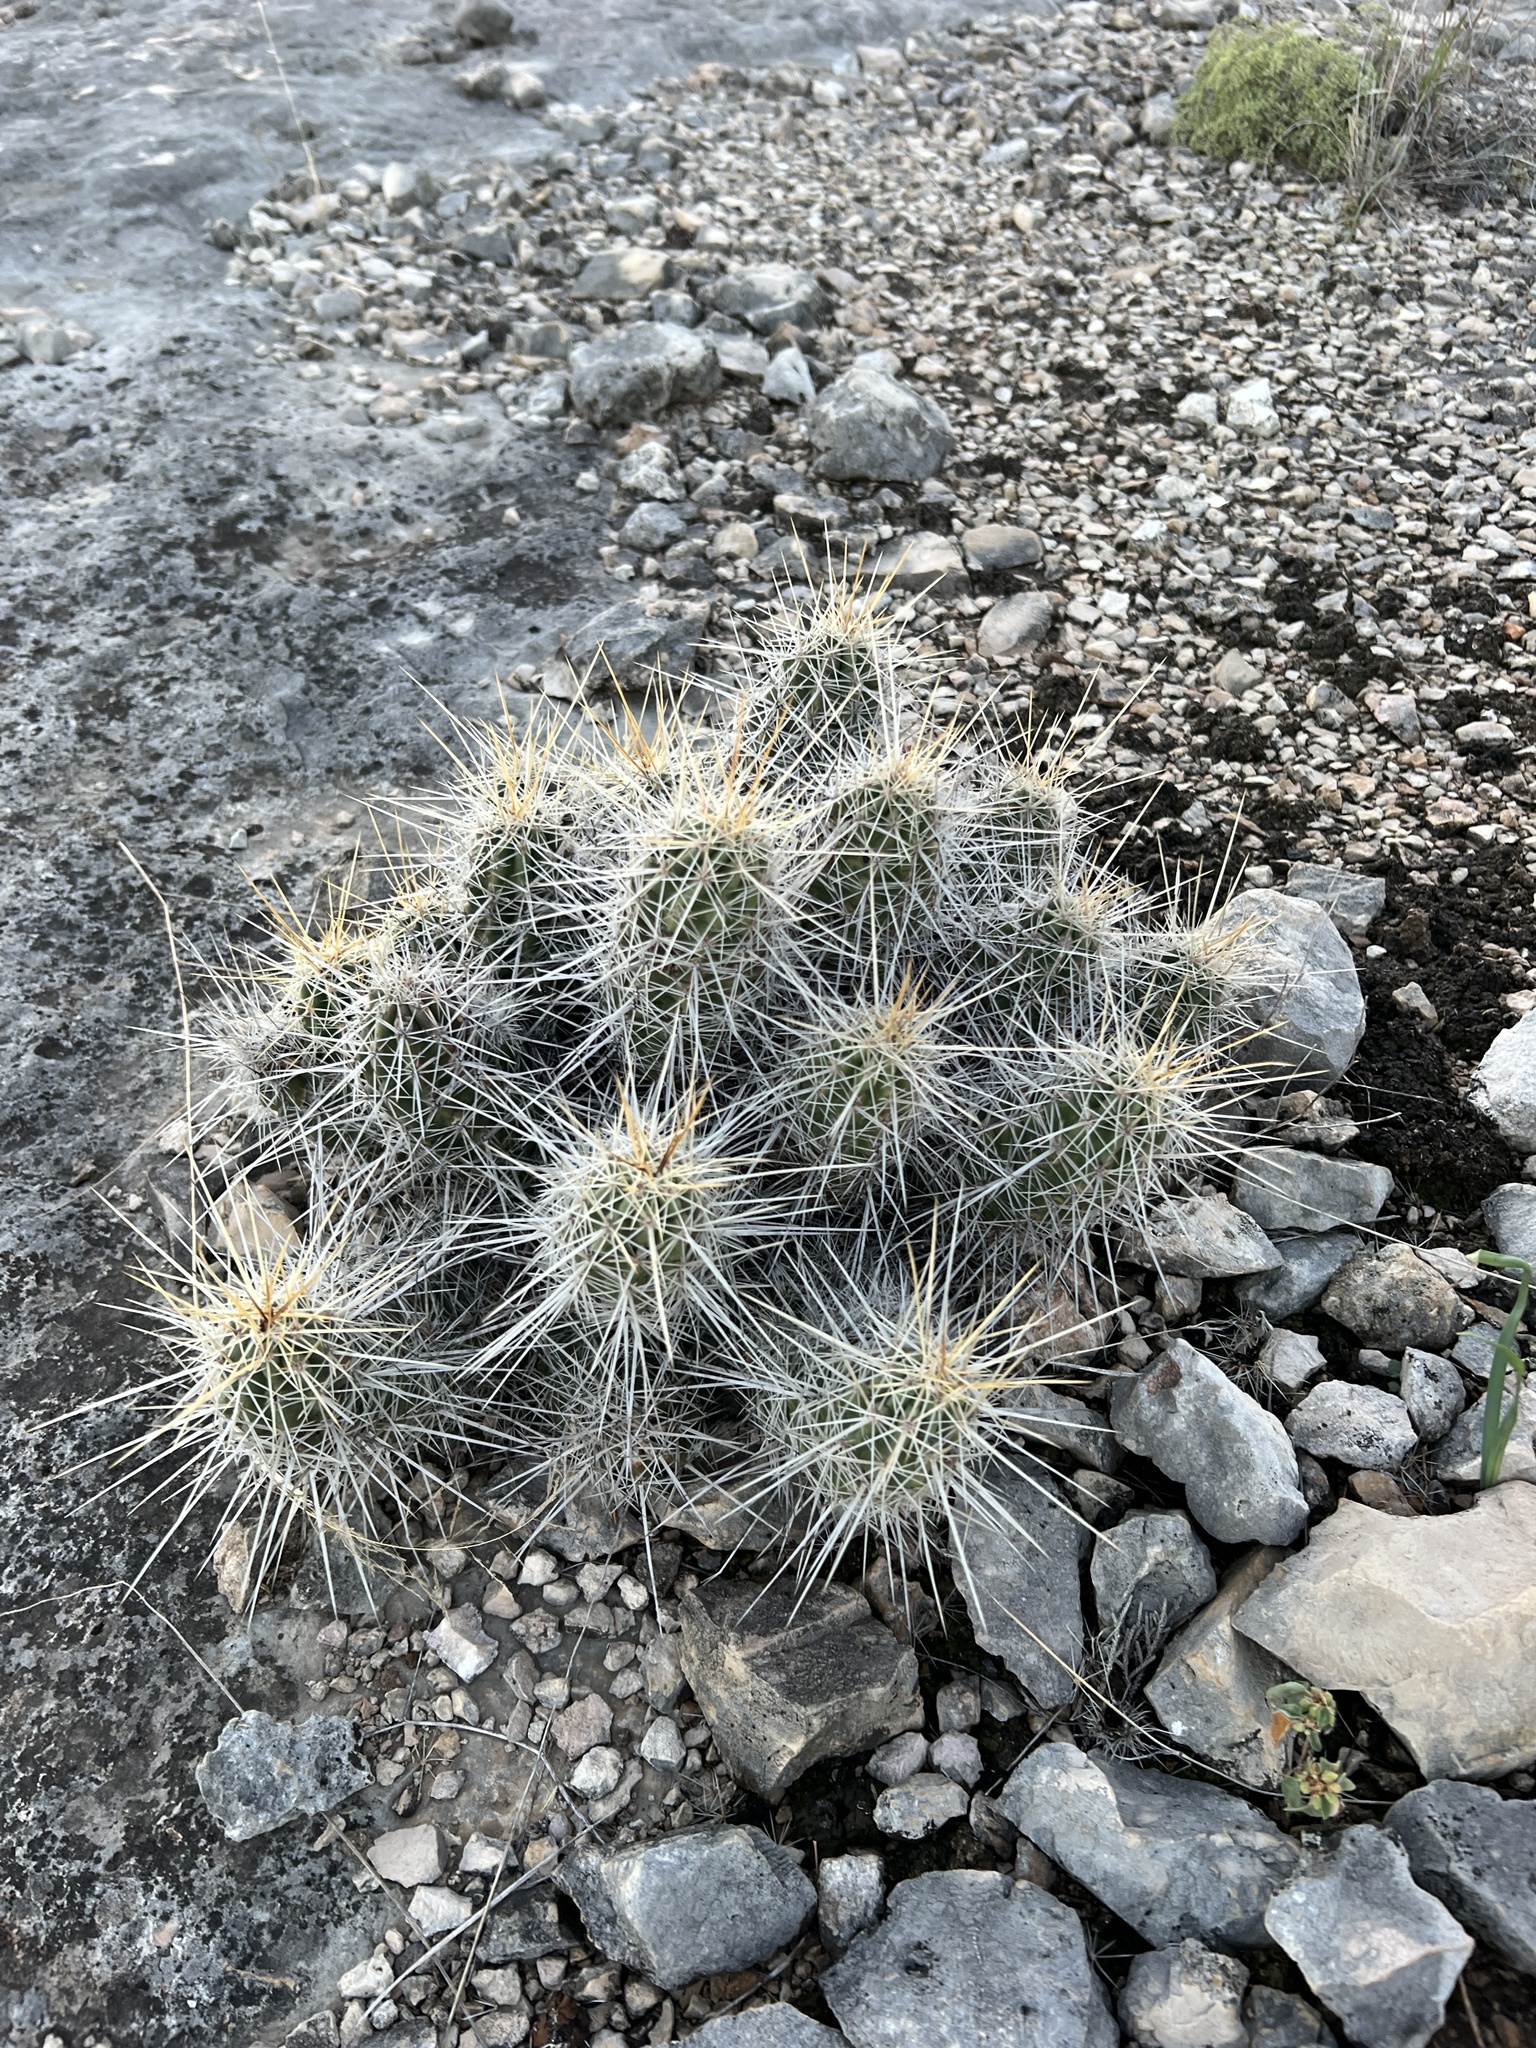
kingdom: Plantae
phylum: Tracheophyta
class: Magnoliopsida
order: Caryophyllales
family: Cactaceae
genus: Echinocereus
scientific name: Echinocereus enneacanthus
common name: Pitaya
